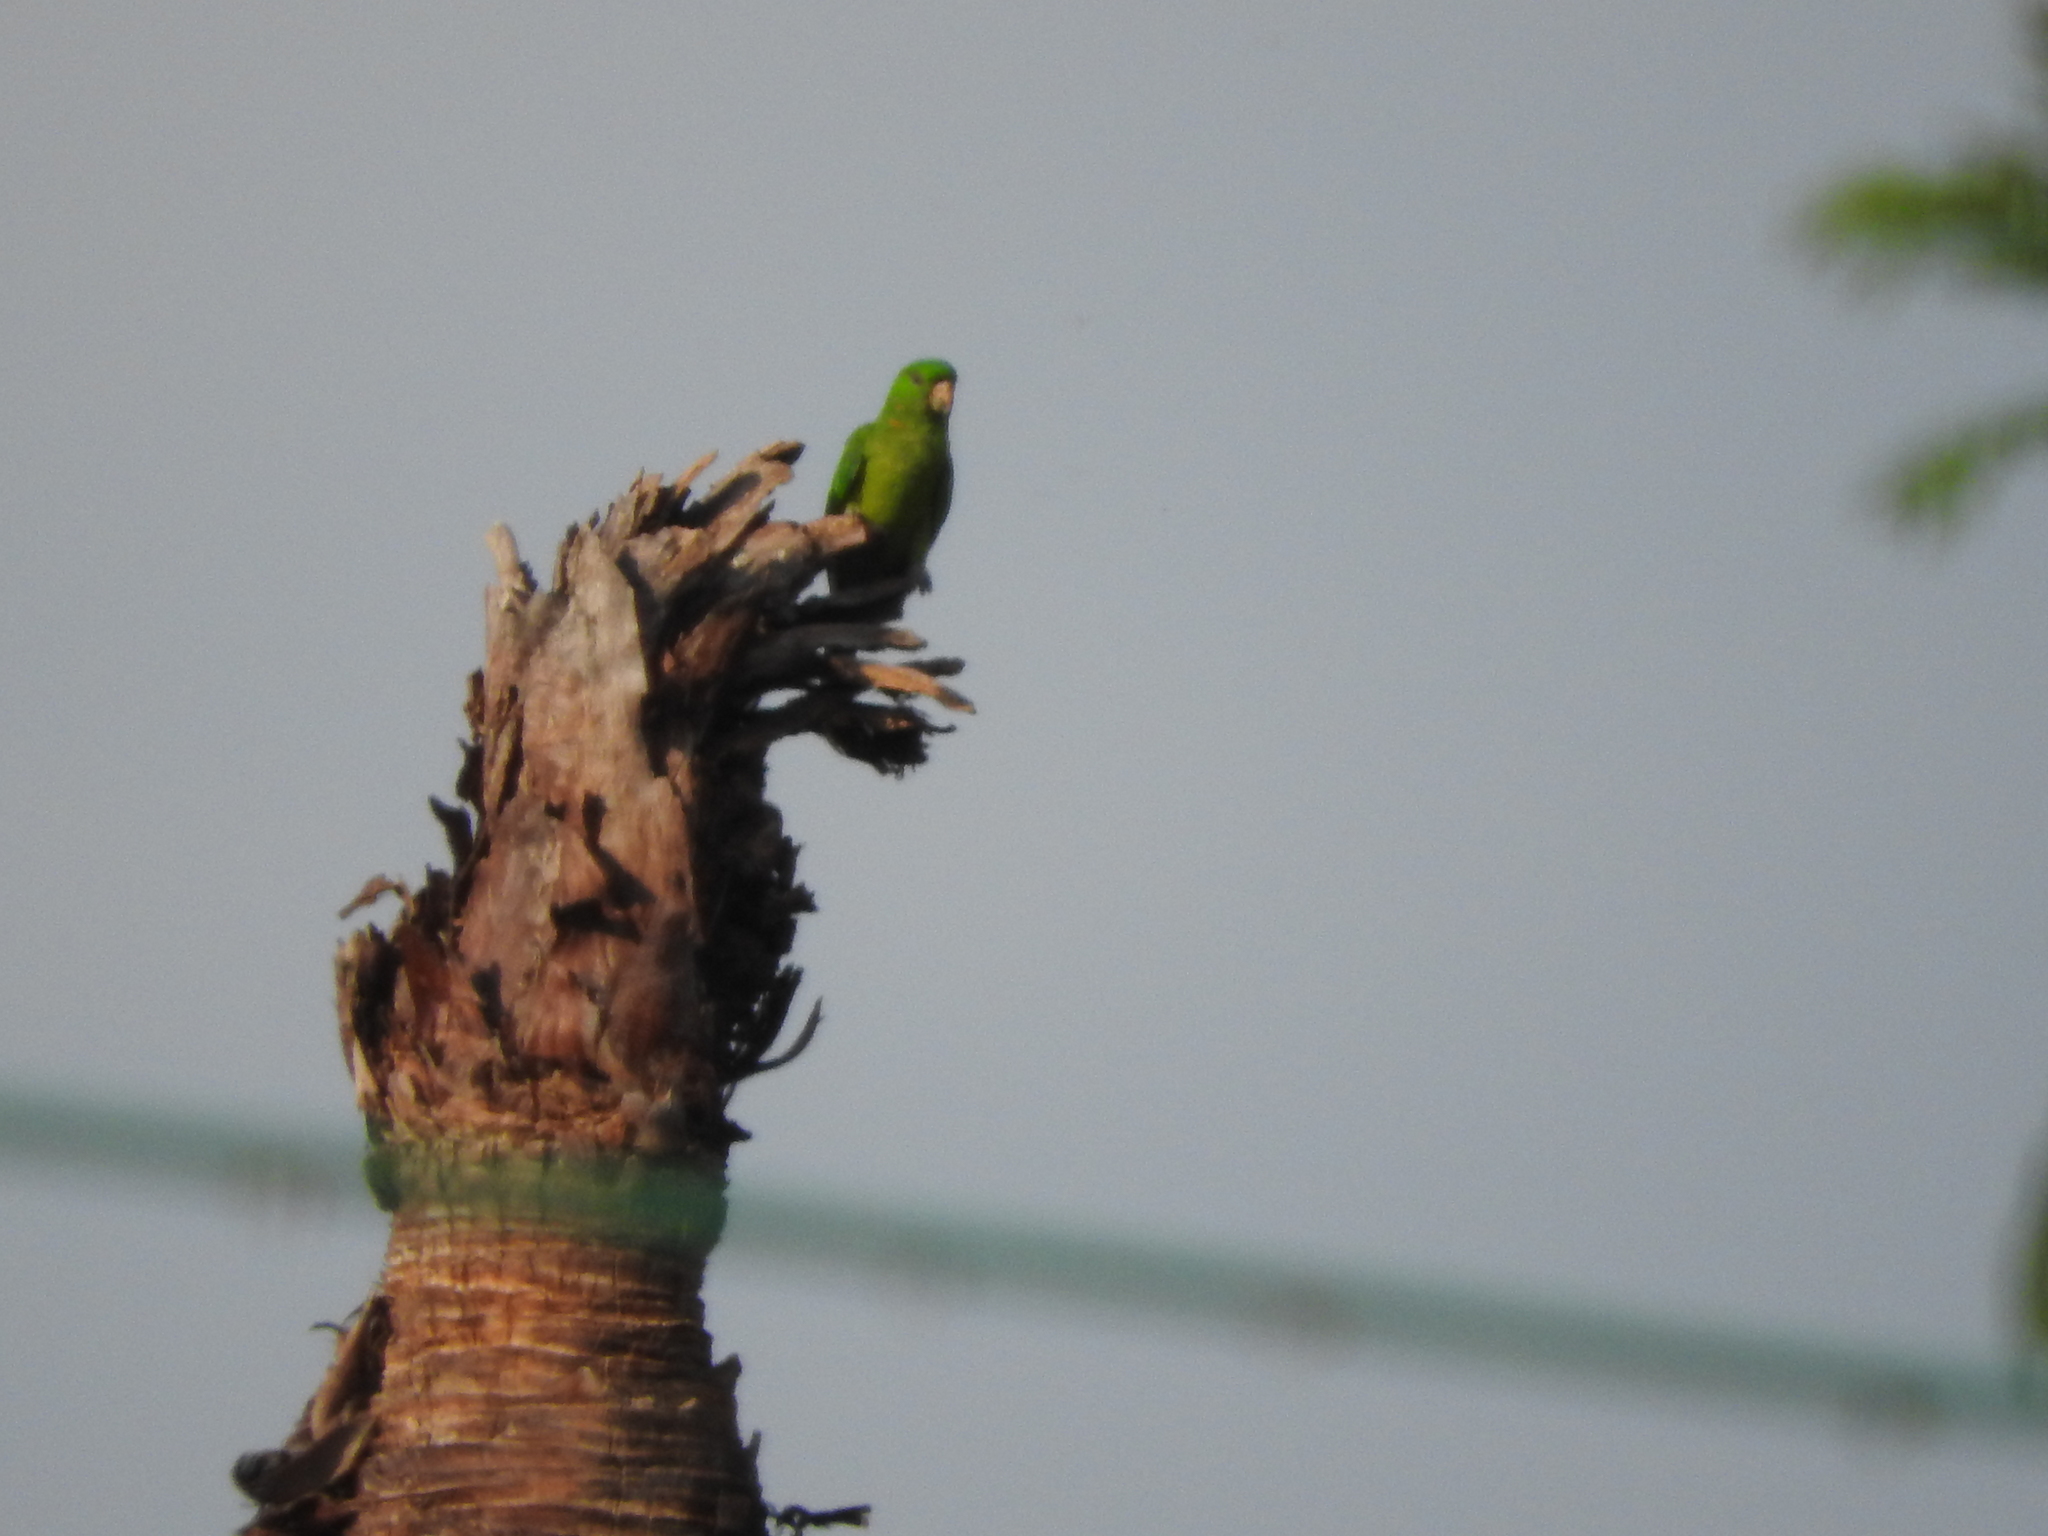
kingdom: Animalia
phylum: Chordata
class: Aves
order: Psittaciformes
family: Psittacidae
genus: Aratinga
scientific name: Aratinga holochlora
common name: Green parakeet
